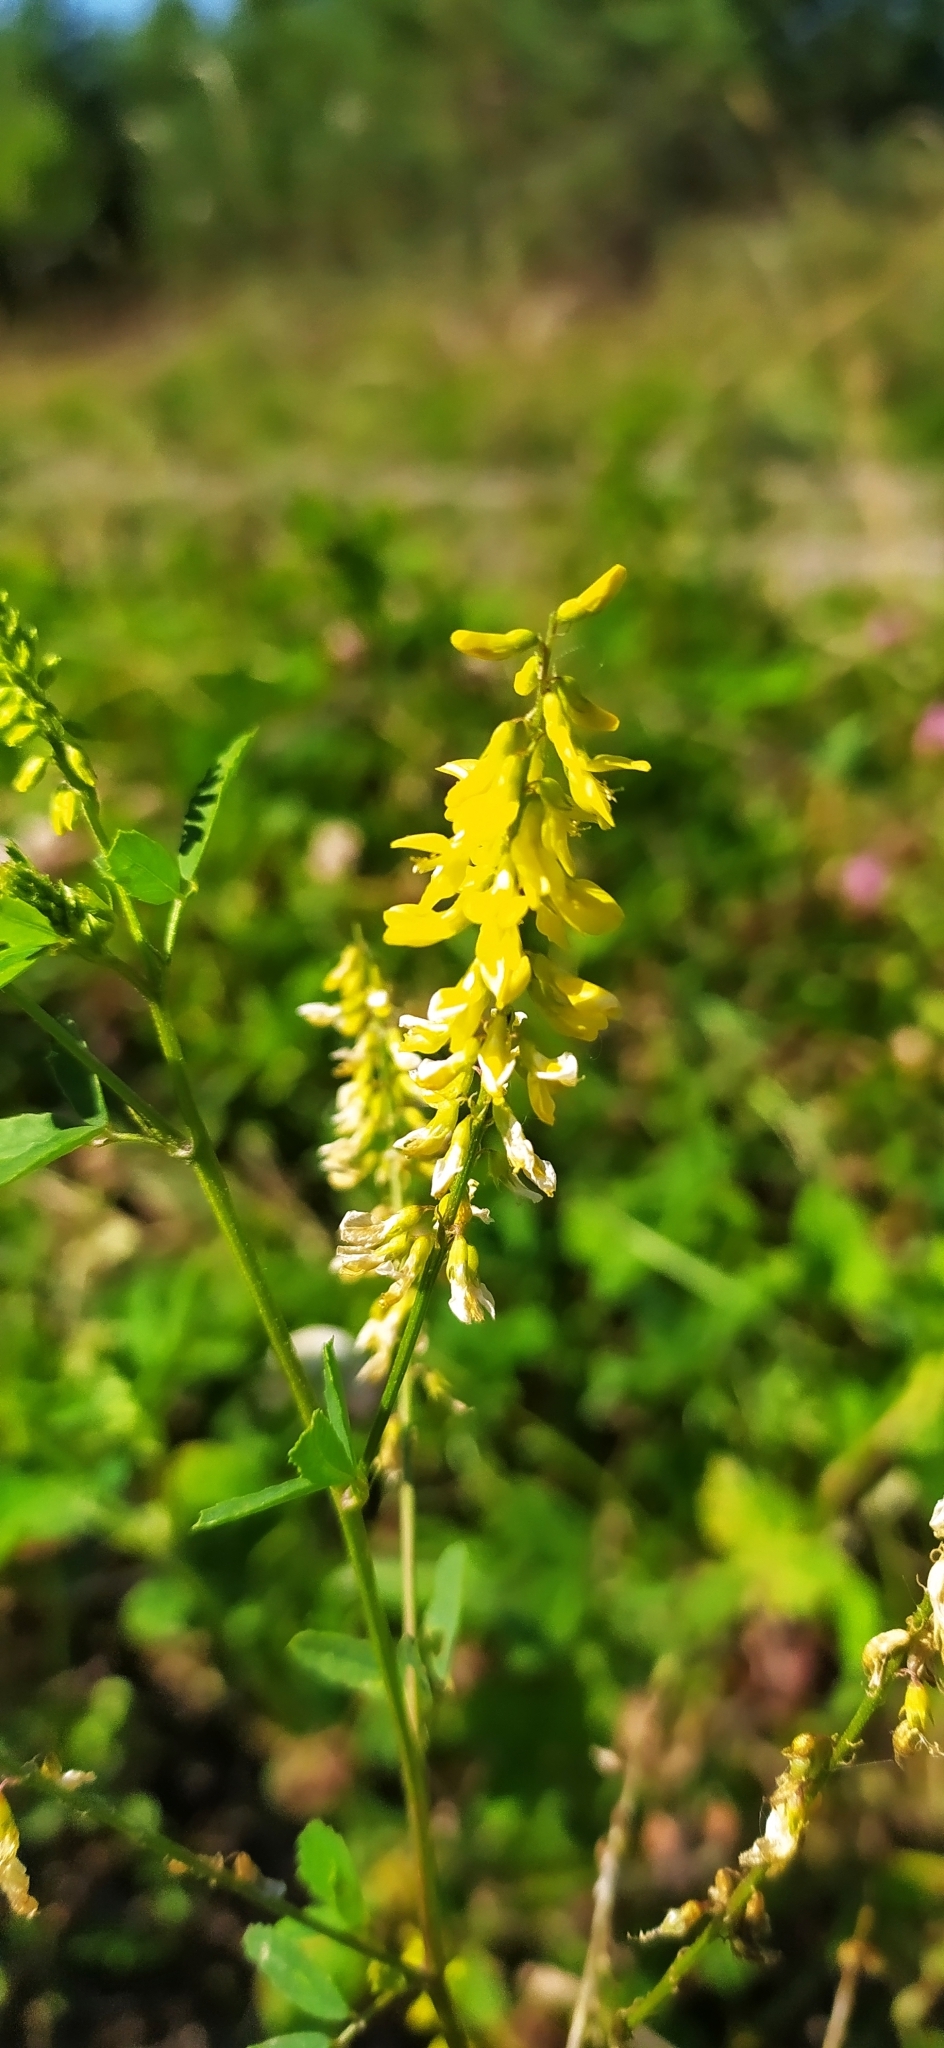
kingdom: Plantae
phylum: Tracheophyta
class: Magnoliopsida
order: Fabales
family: Fabaceae
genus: Melilotus
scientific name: Melilotus officinalis
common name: Sweetclover
